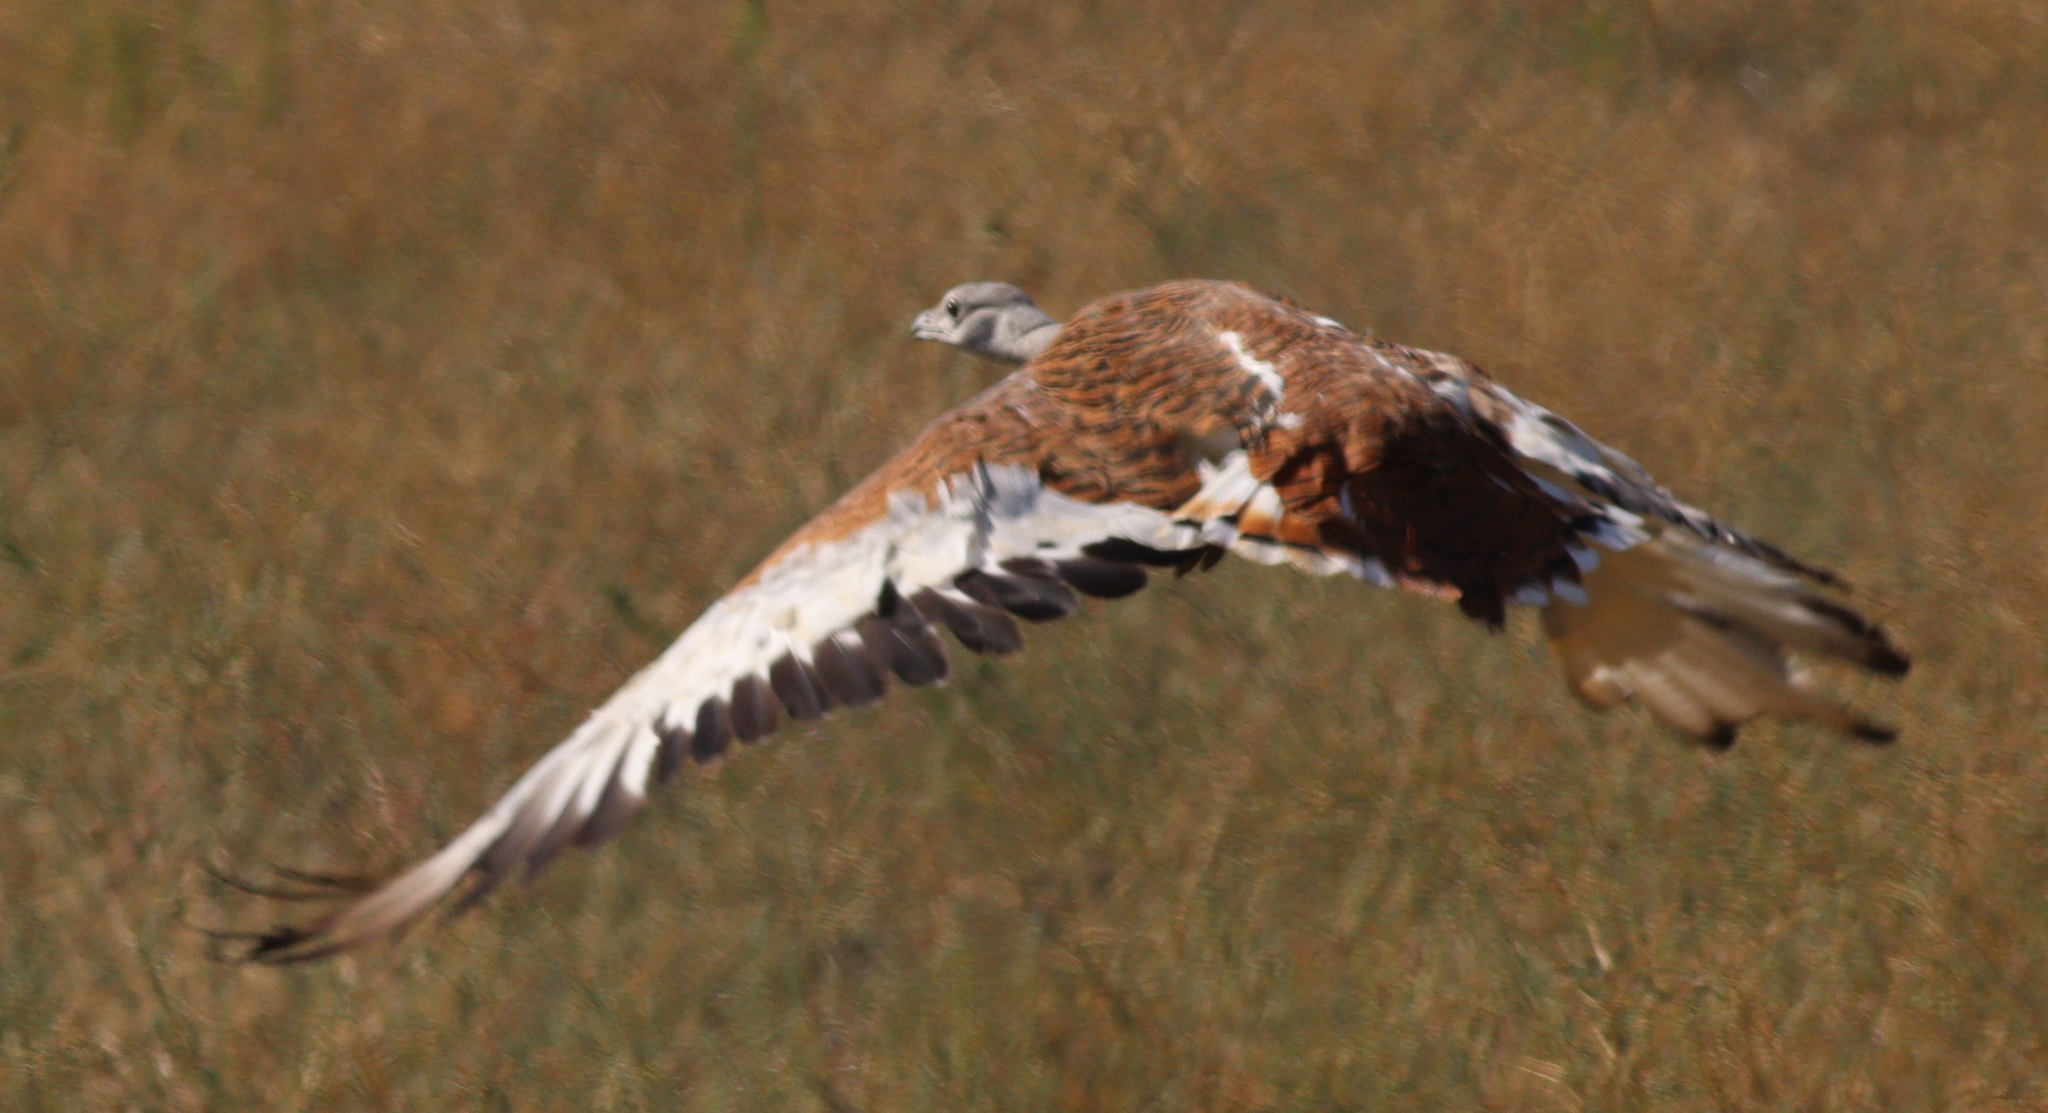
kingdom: Animalia
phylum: Chordata
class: Aves
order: Otidiformes
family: Otididae
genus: Otis
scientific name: Otis tarda
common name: Great bustard
